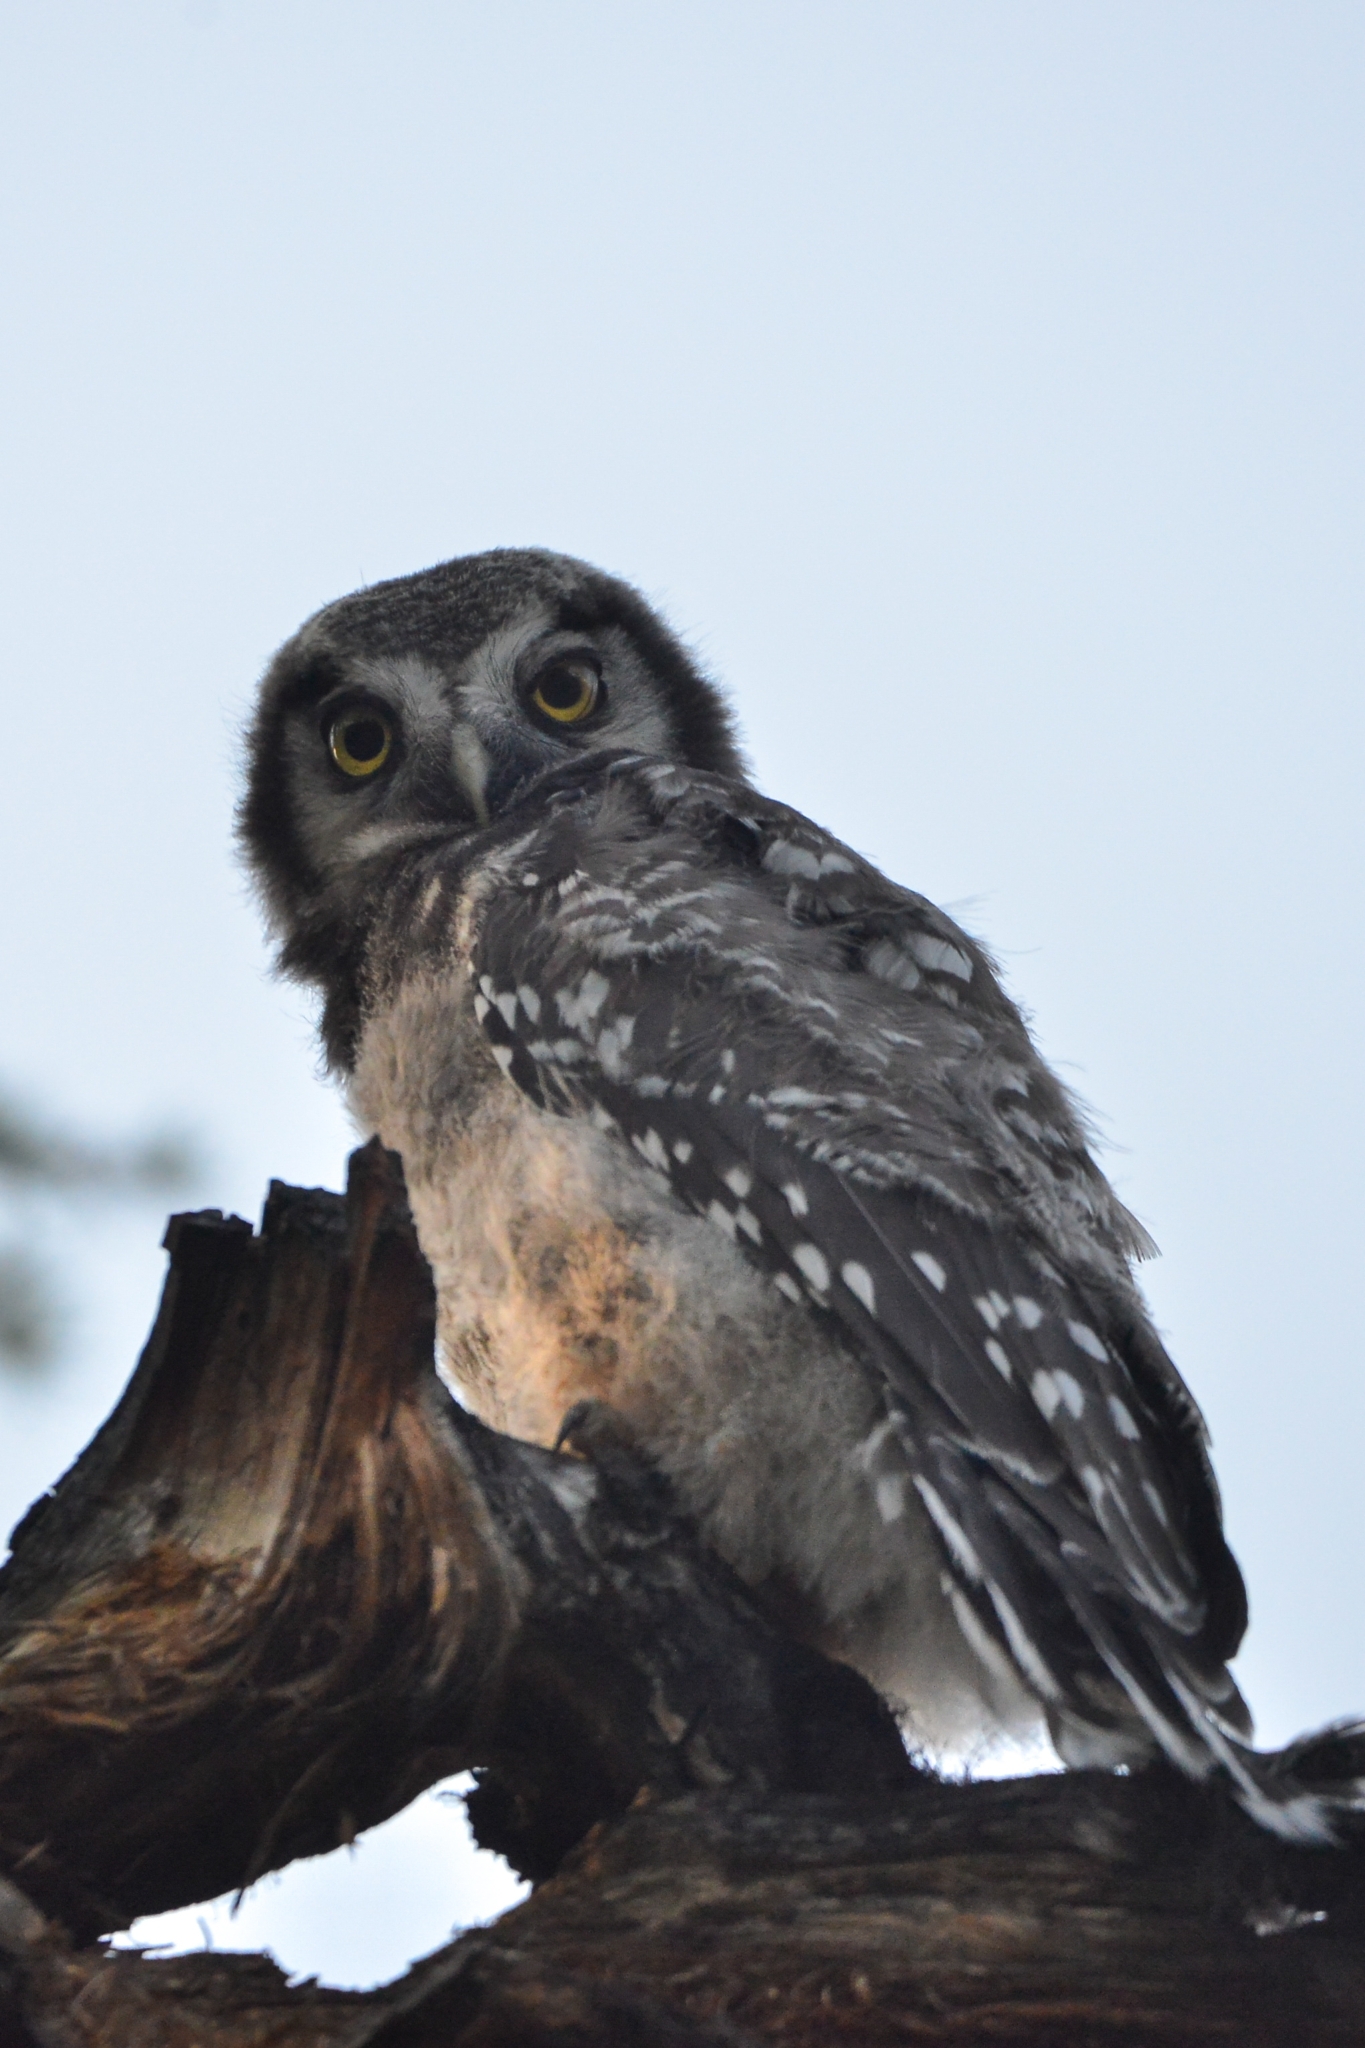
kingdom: Animalia
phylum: Chordata
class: Aves
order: Strigiformes
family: Strigidae
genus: Surnia
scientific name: Surnia ulula
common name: Northern hawk-owl
